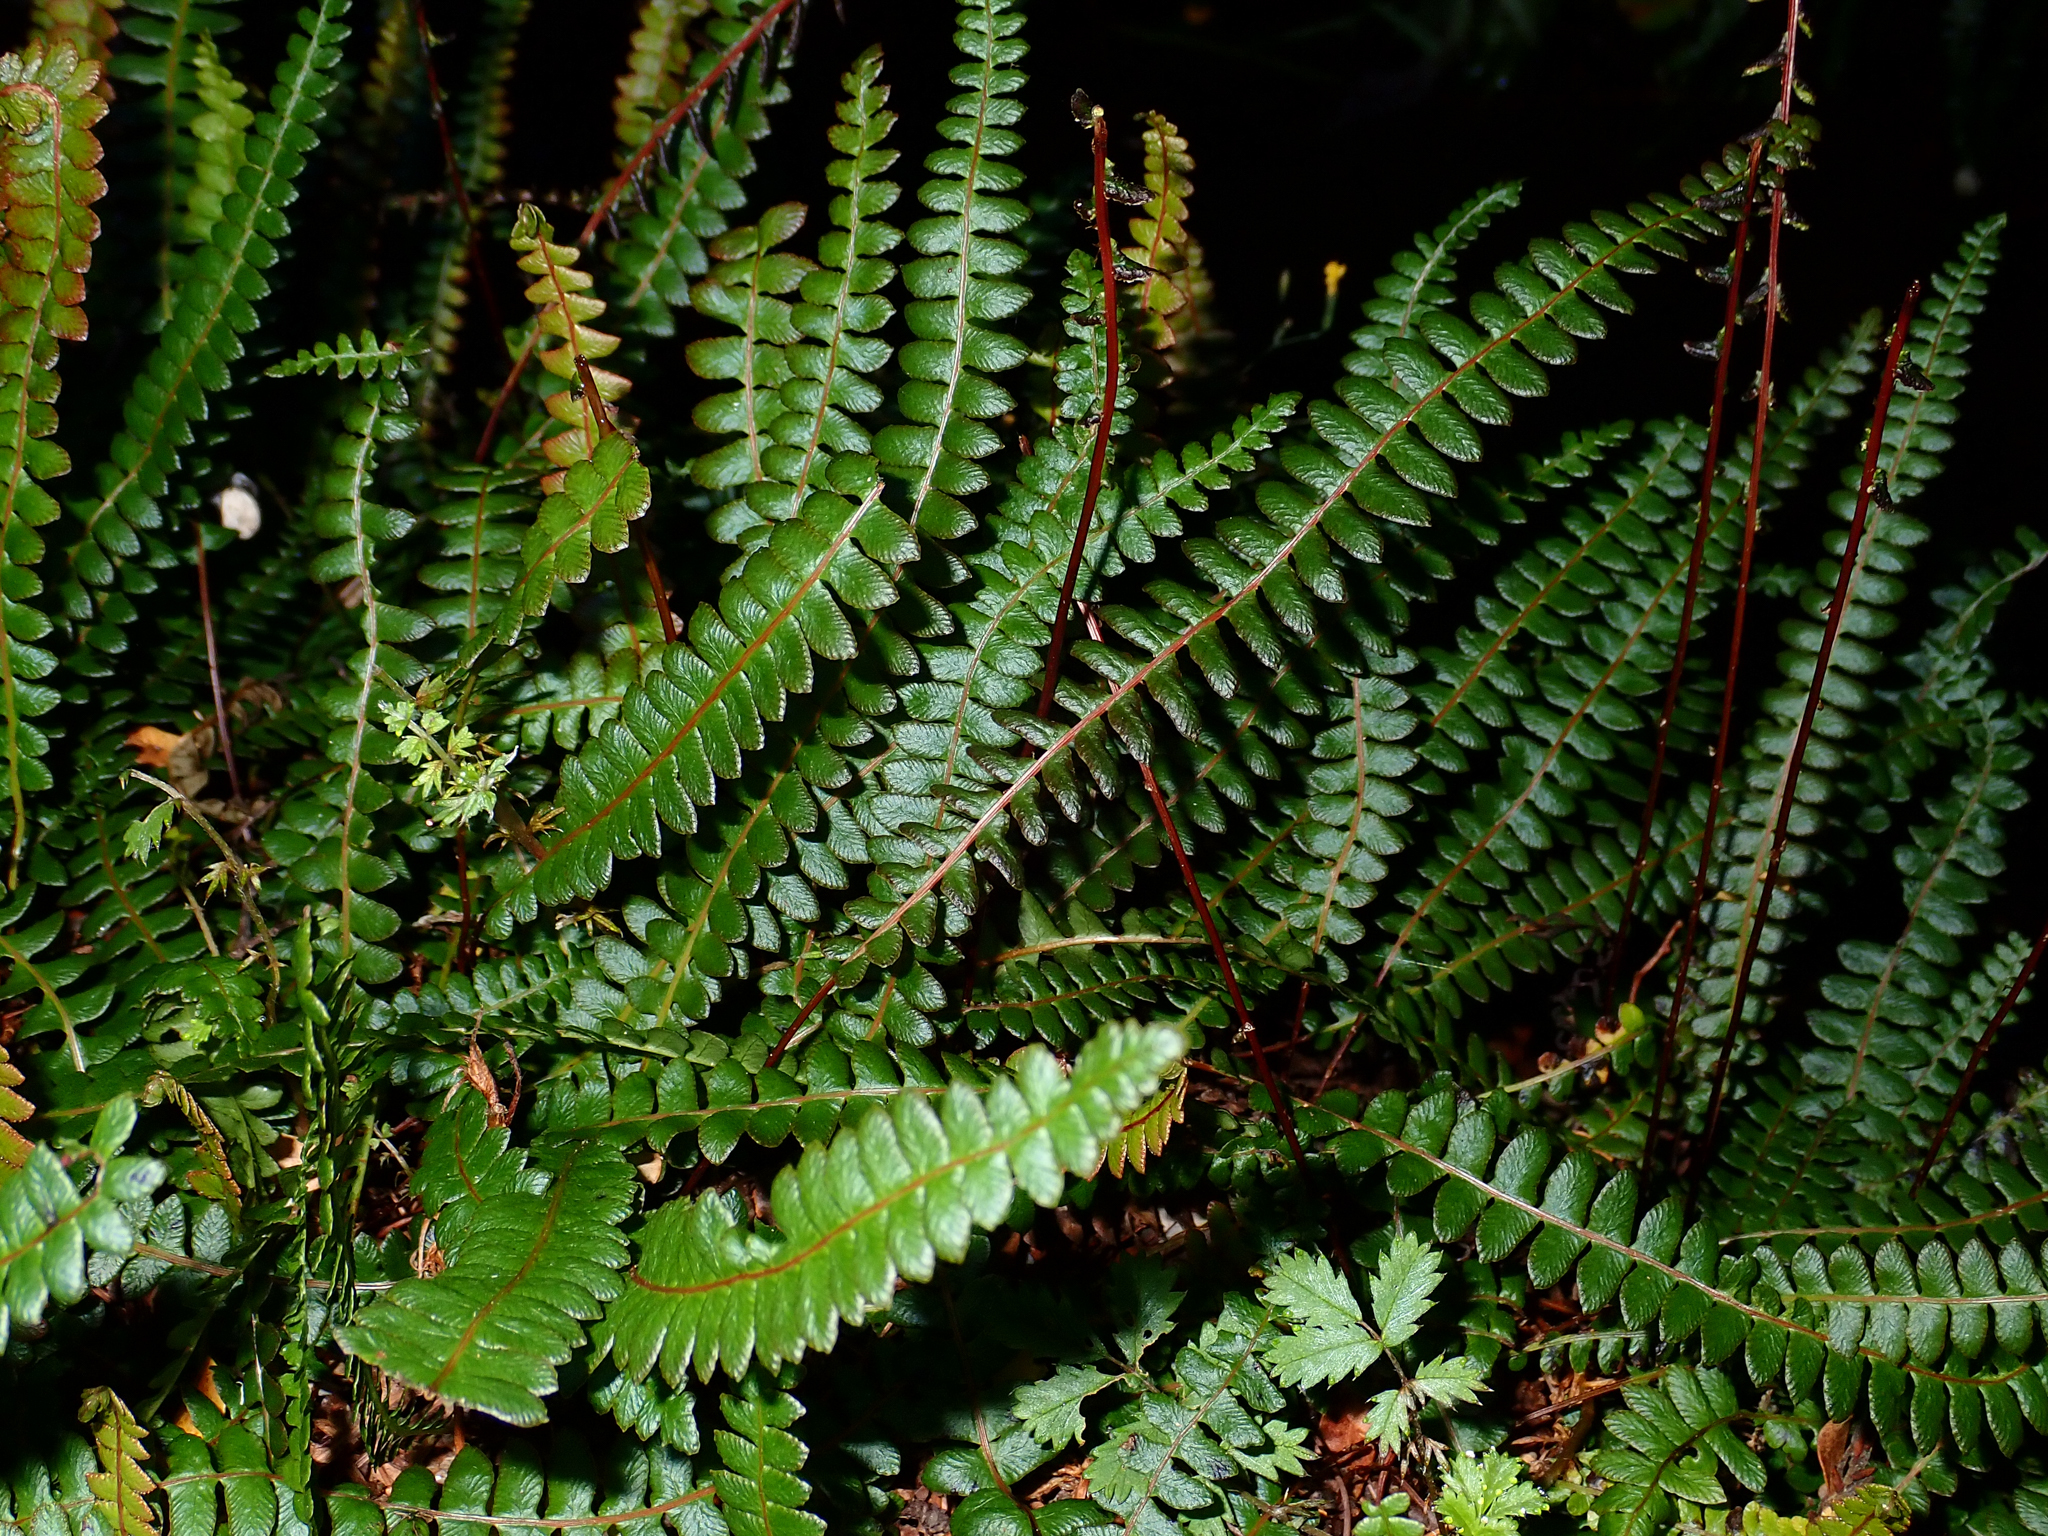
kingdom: Plantae
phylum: Tracheophyta
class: Polypodiopsida
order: Polypodiales
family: Blechnaceae
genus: Austroblechnum
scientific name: Austroblechnum penna-marina
